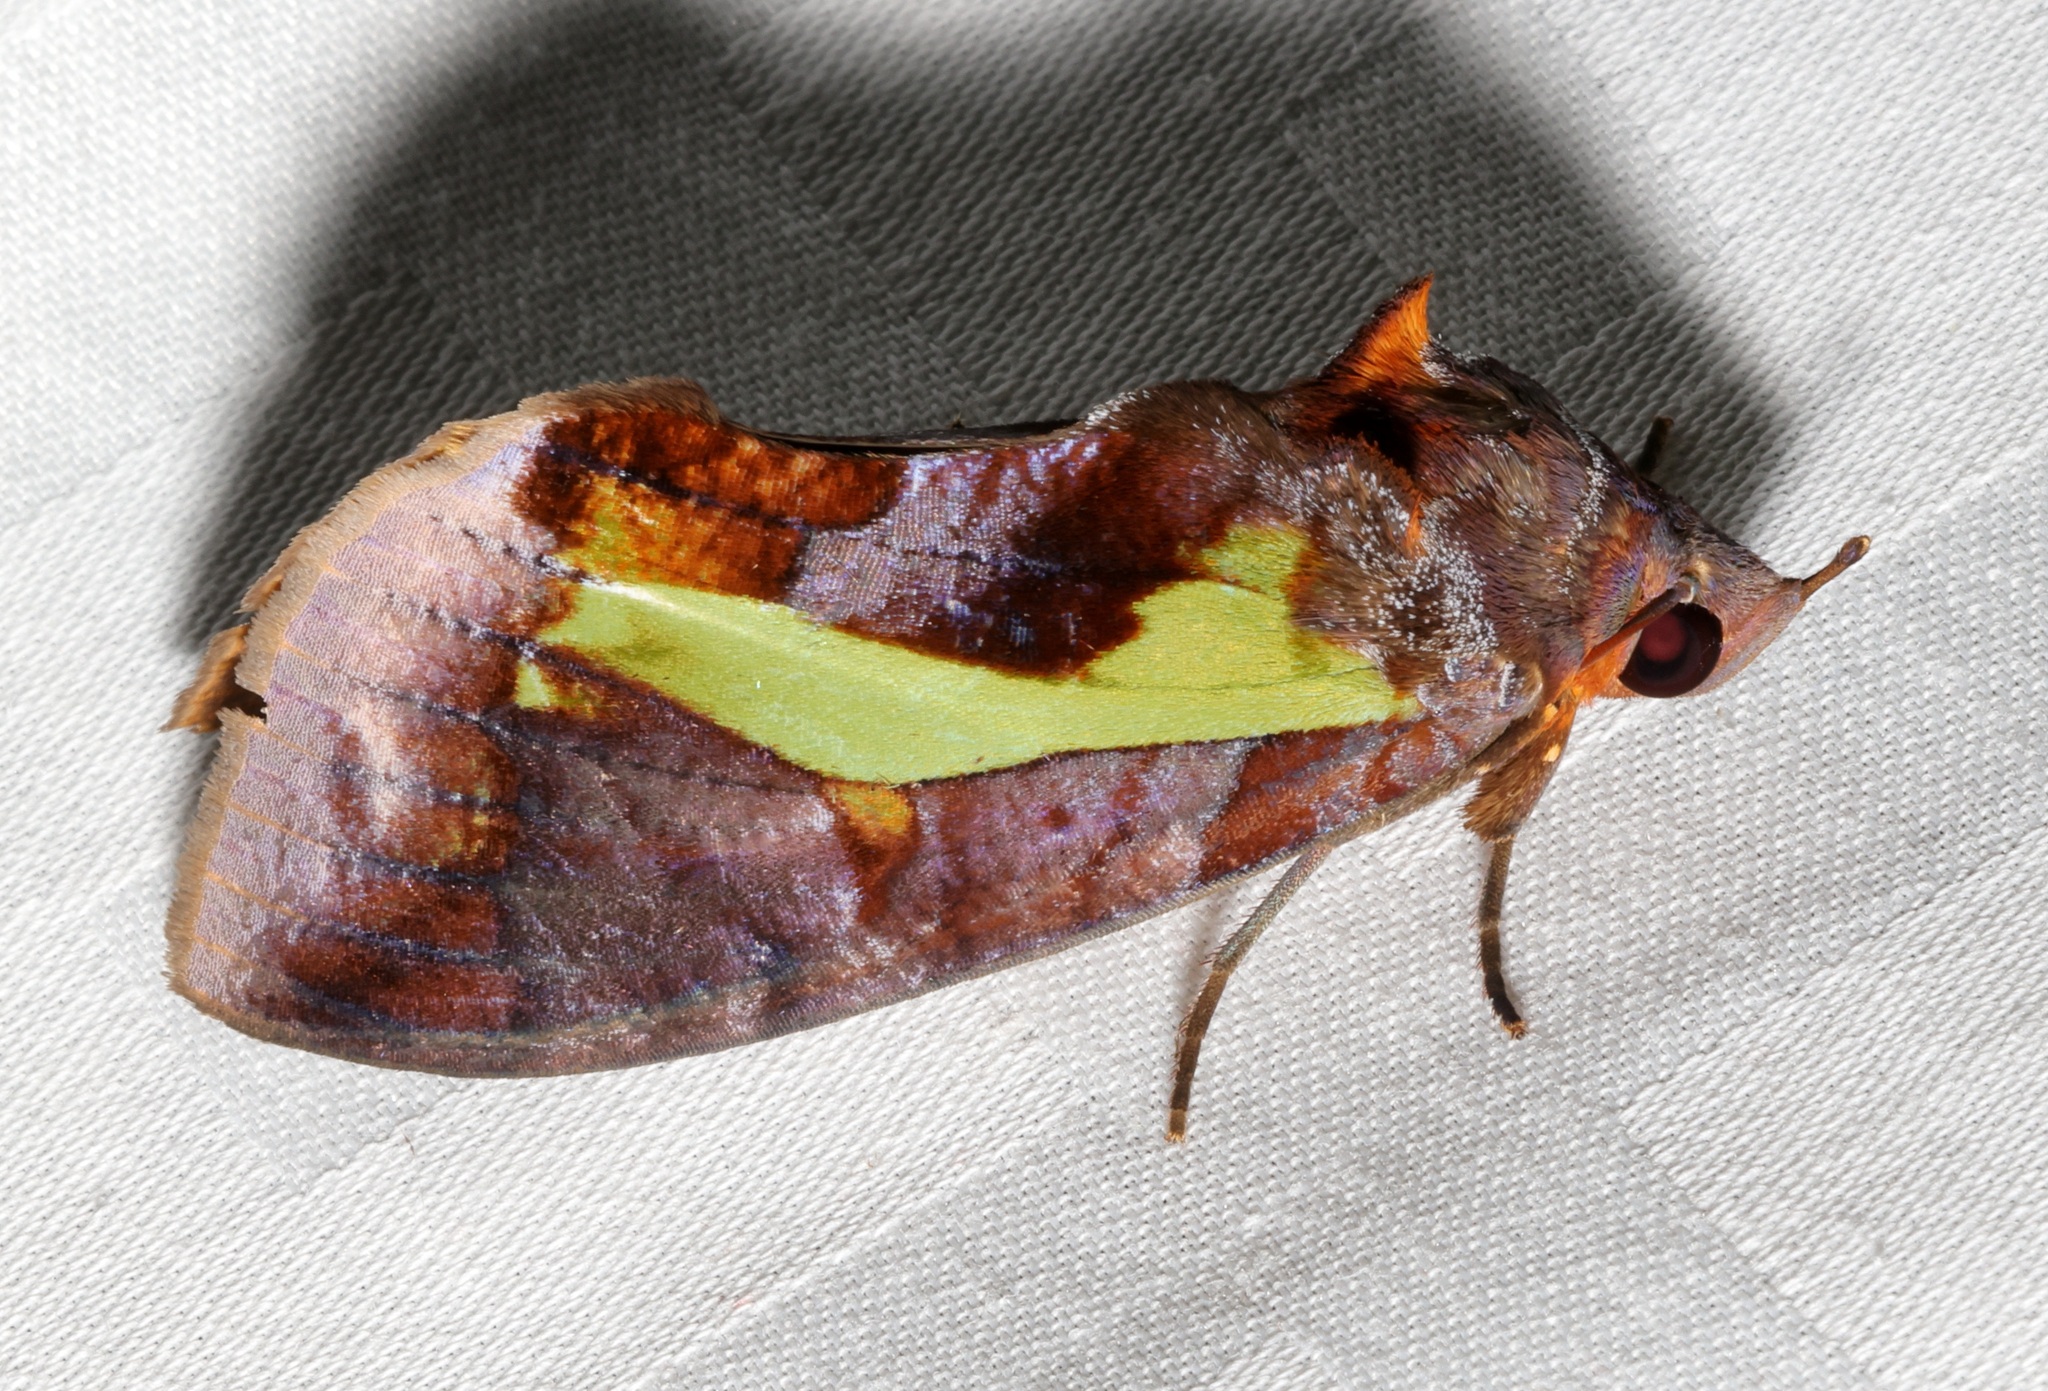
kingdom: Animalia
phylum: Arthropoda
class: Insecta
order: Lepidoptera
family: Erebidae
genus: Eudocima
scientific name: Eudocima homaena
